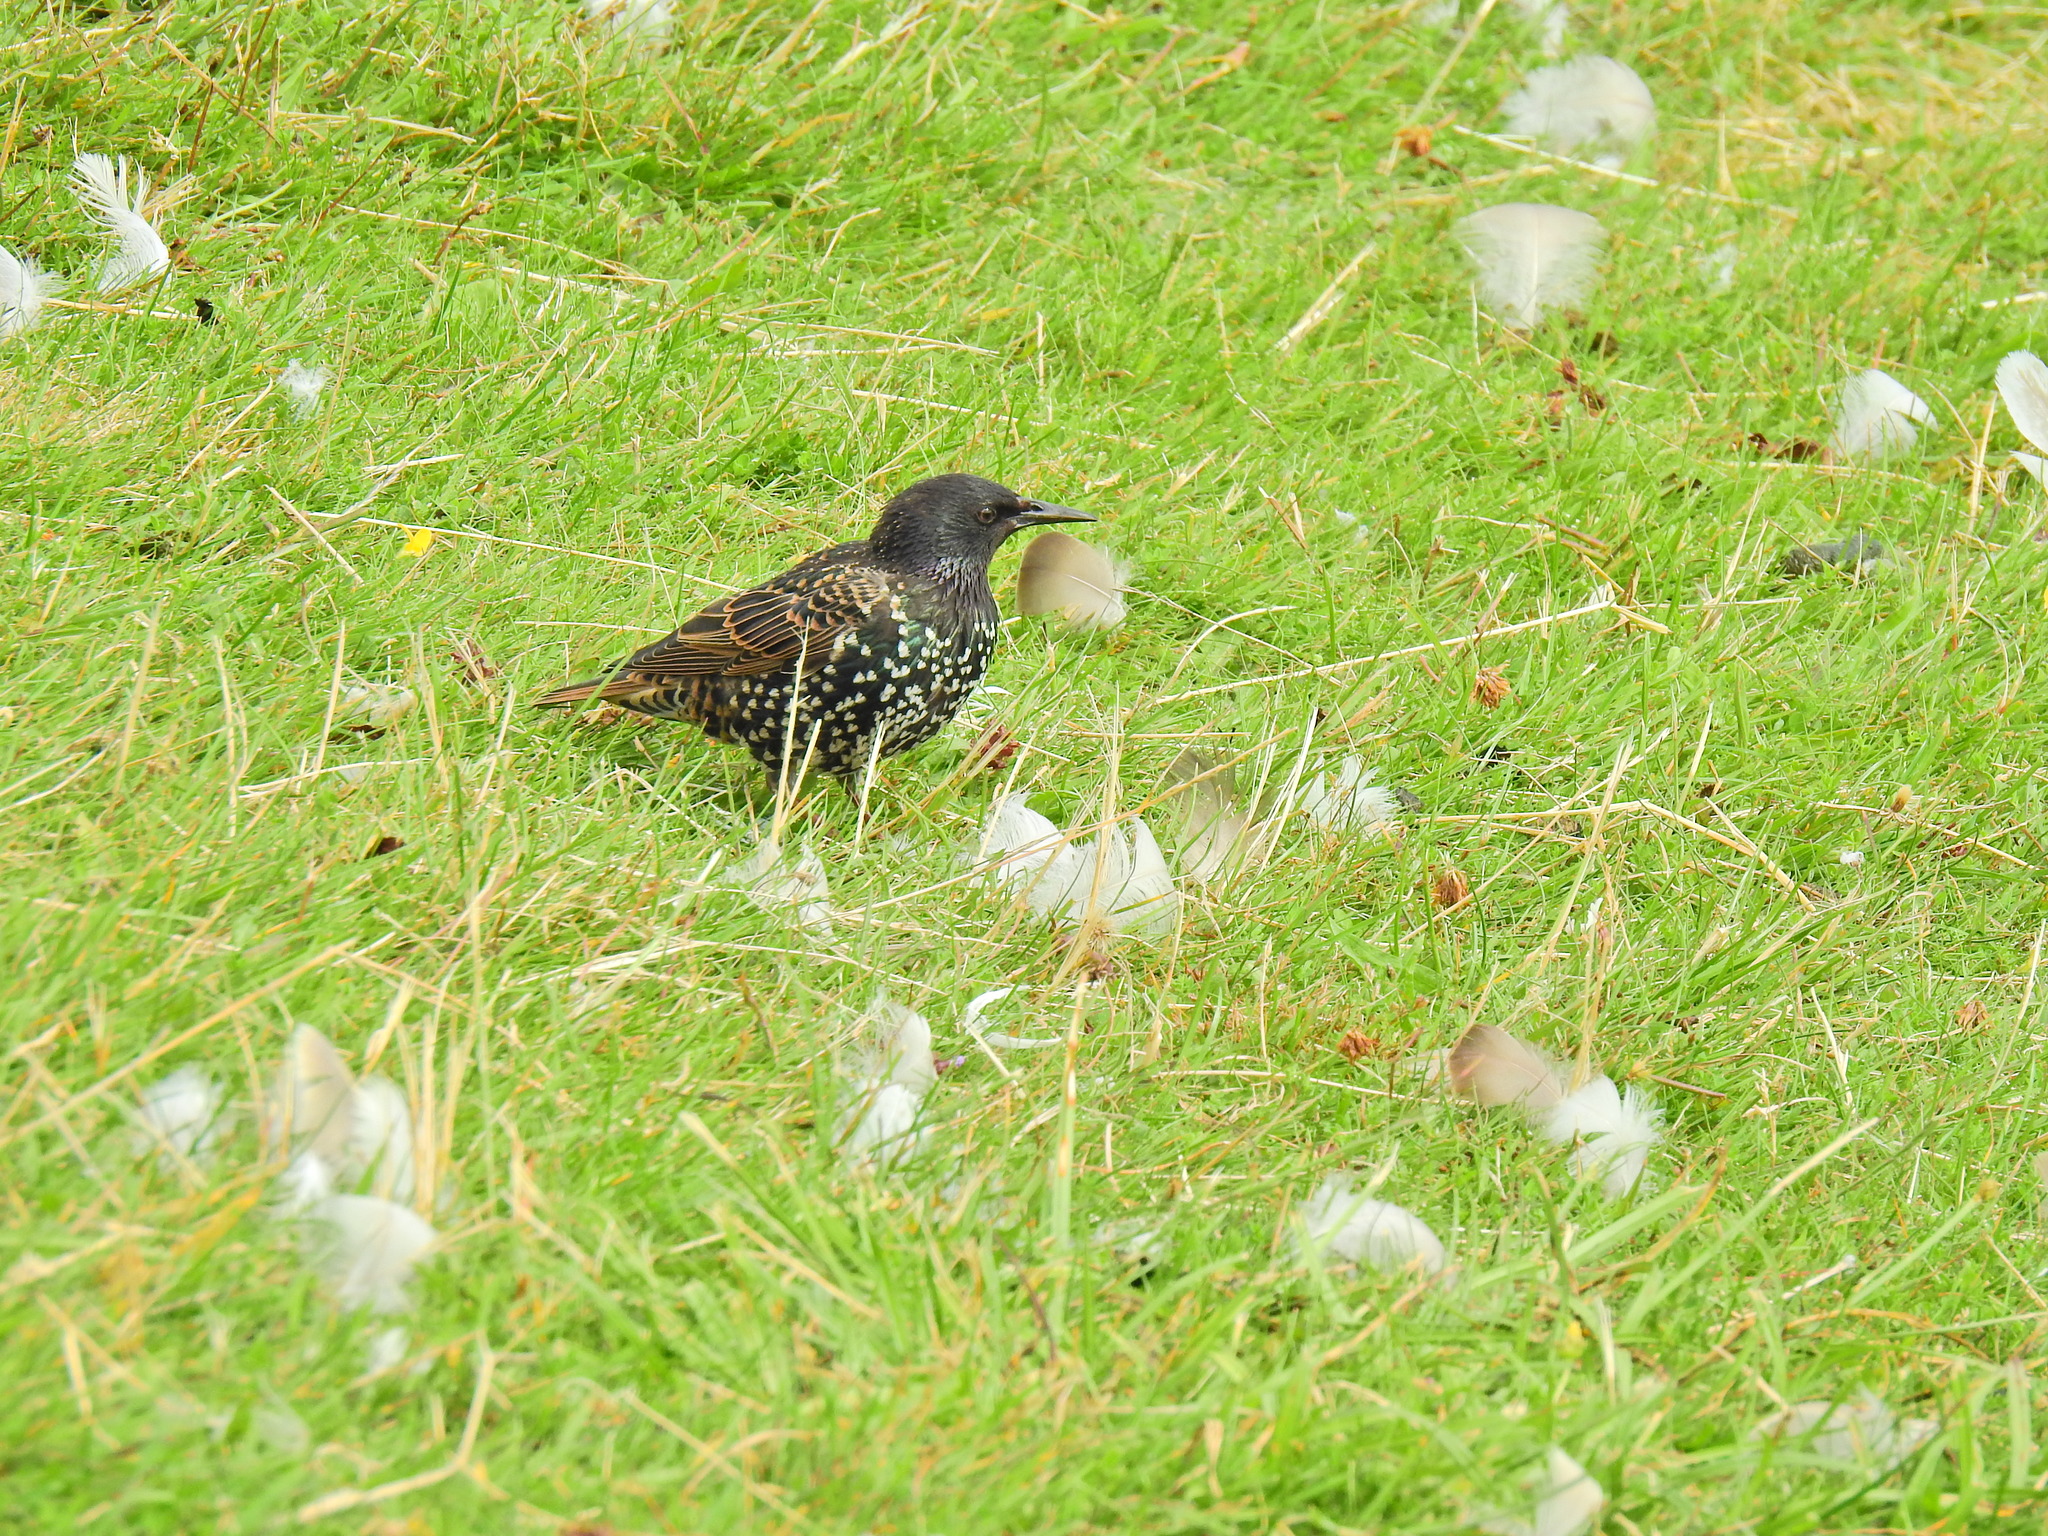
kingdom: Animalia
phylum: Chordata
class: Aves
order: Passeriformes
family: Sturnidae
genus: Sturnus
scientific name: Sturnus vulgaris
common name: Common starling
